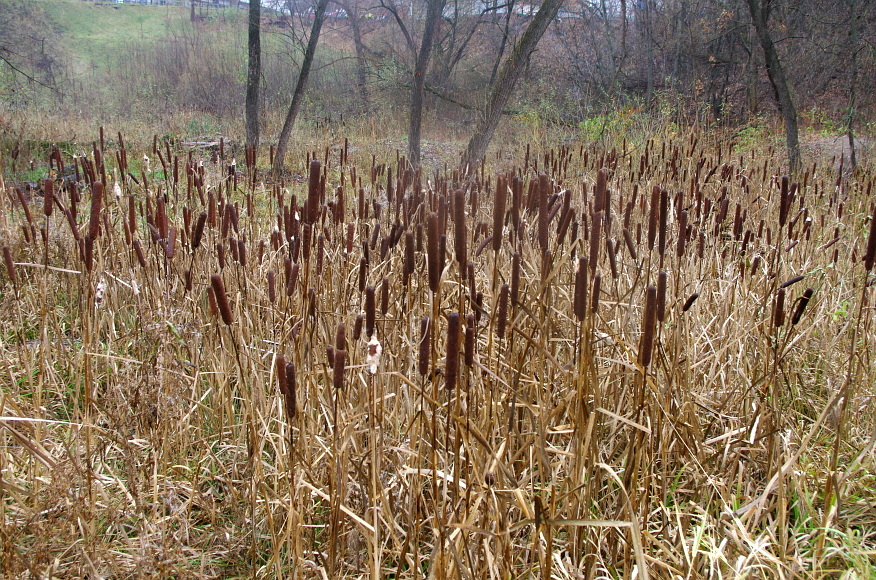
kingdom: Plantae
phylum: Tracheophyta
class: Liliopsida
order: Poales
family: Typhaceae
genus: Typha
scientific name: Typha latifolia
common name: Broadleaf cattail
